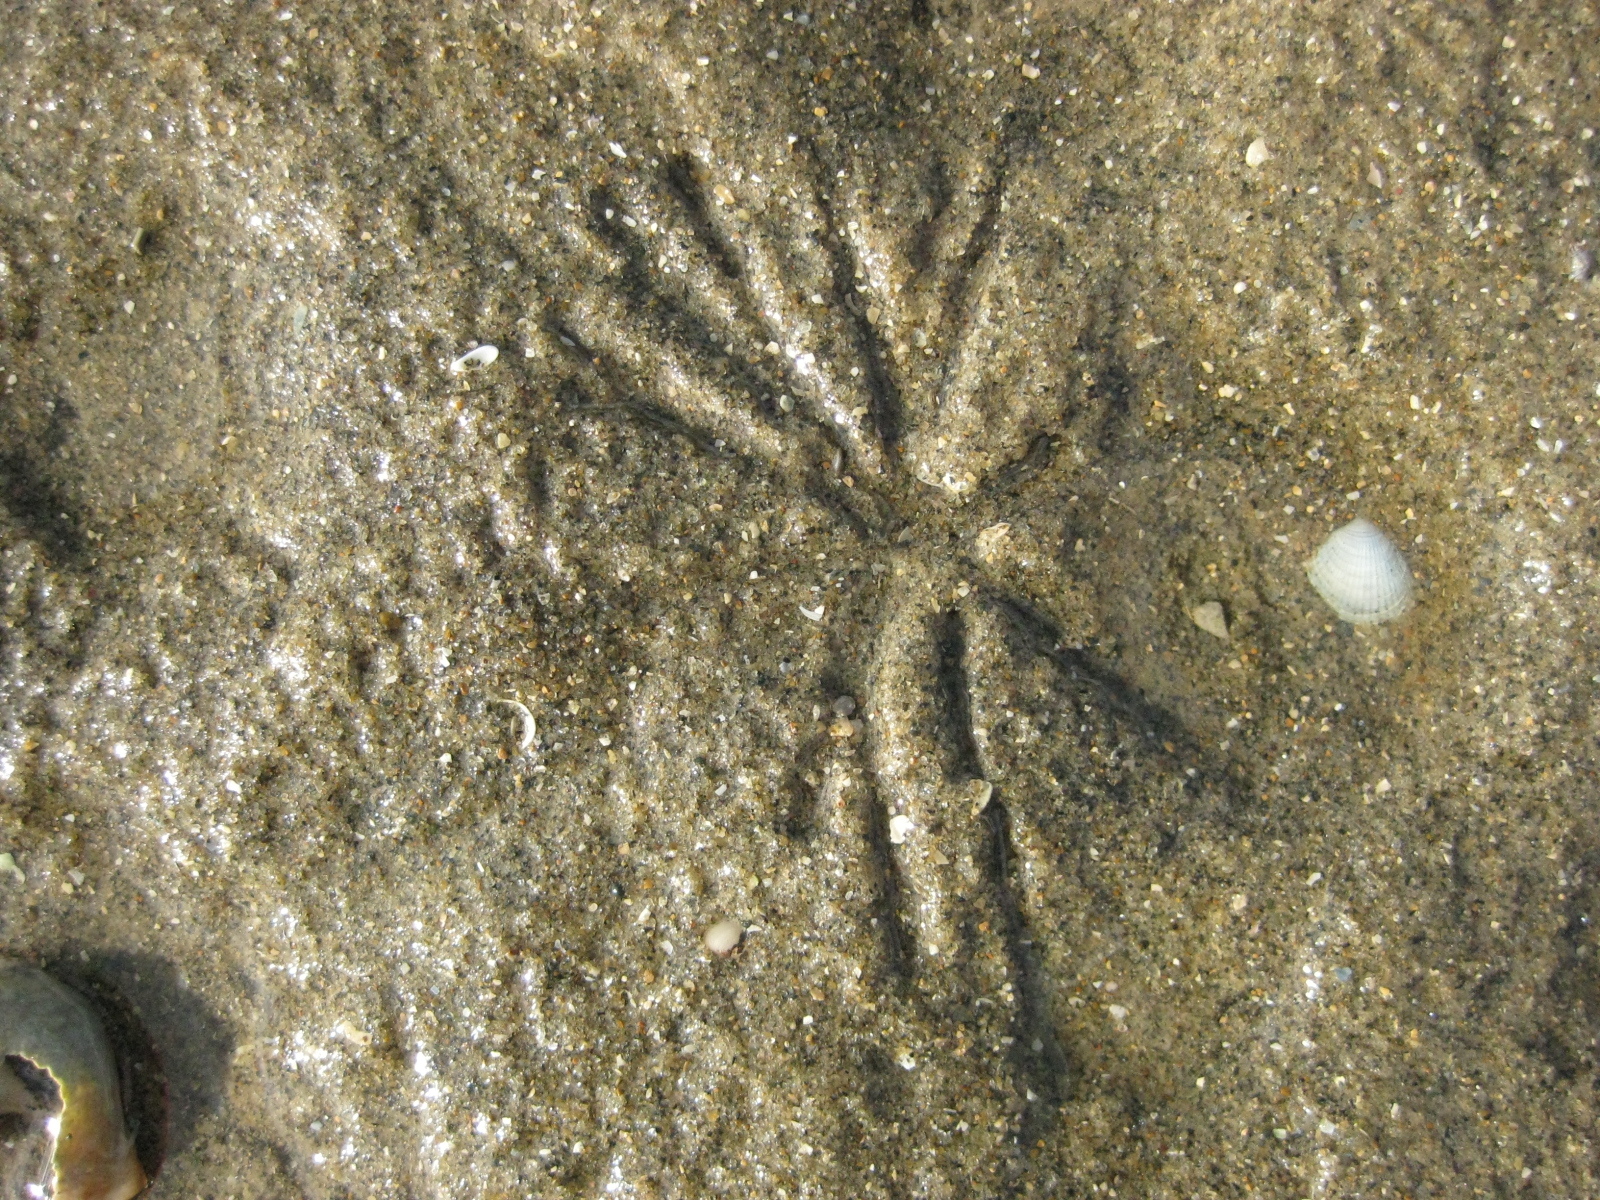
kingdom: Animalia
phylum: Mollusca
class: Bivalvia
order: Cardiida
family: Tellinidae
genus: Macomona
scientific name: Macomona liliana
